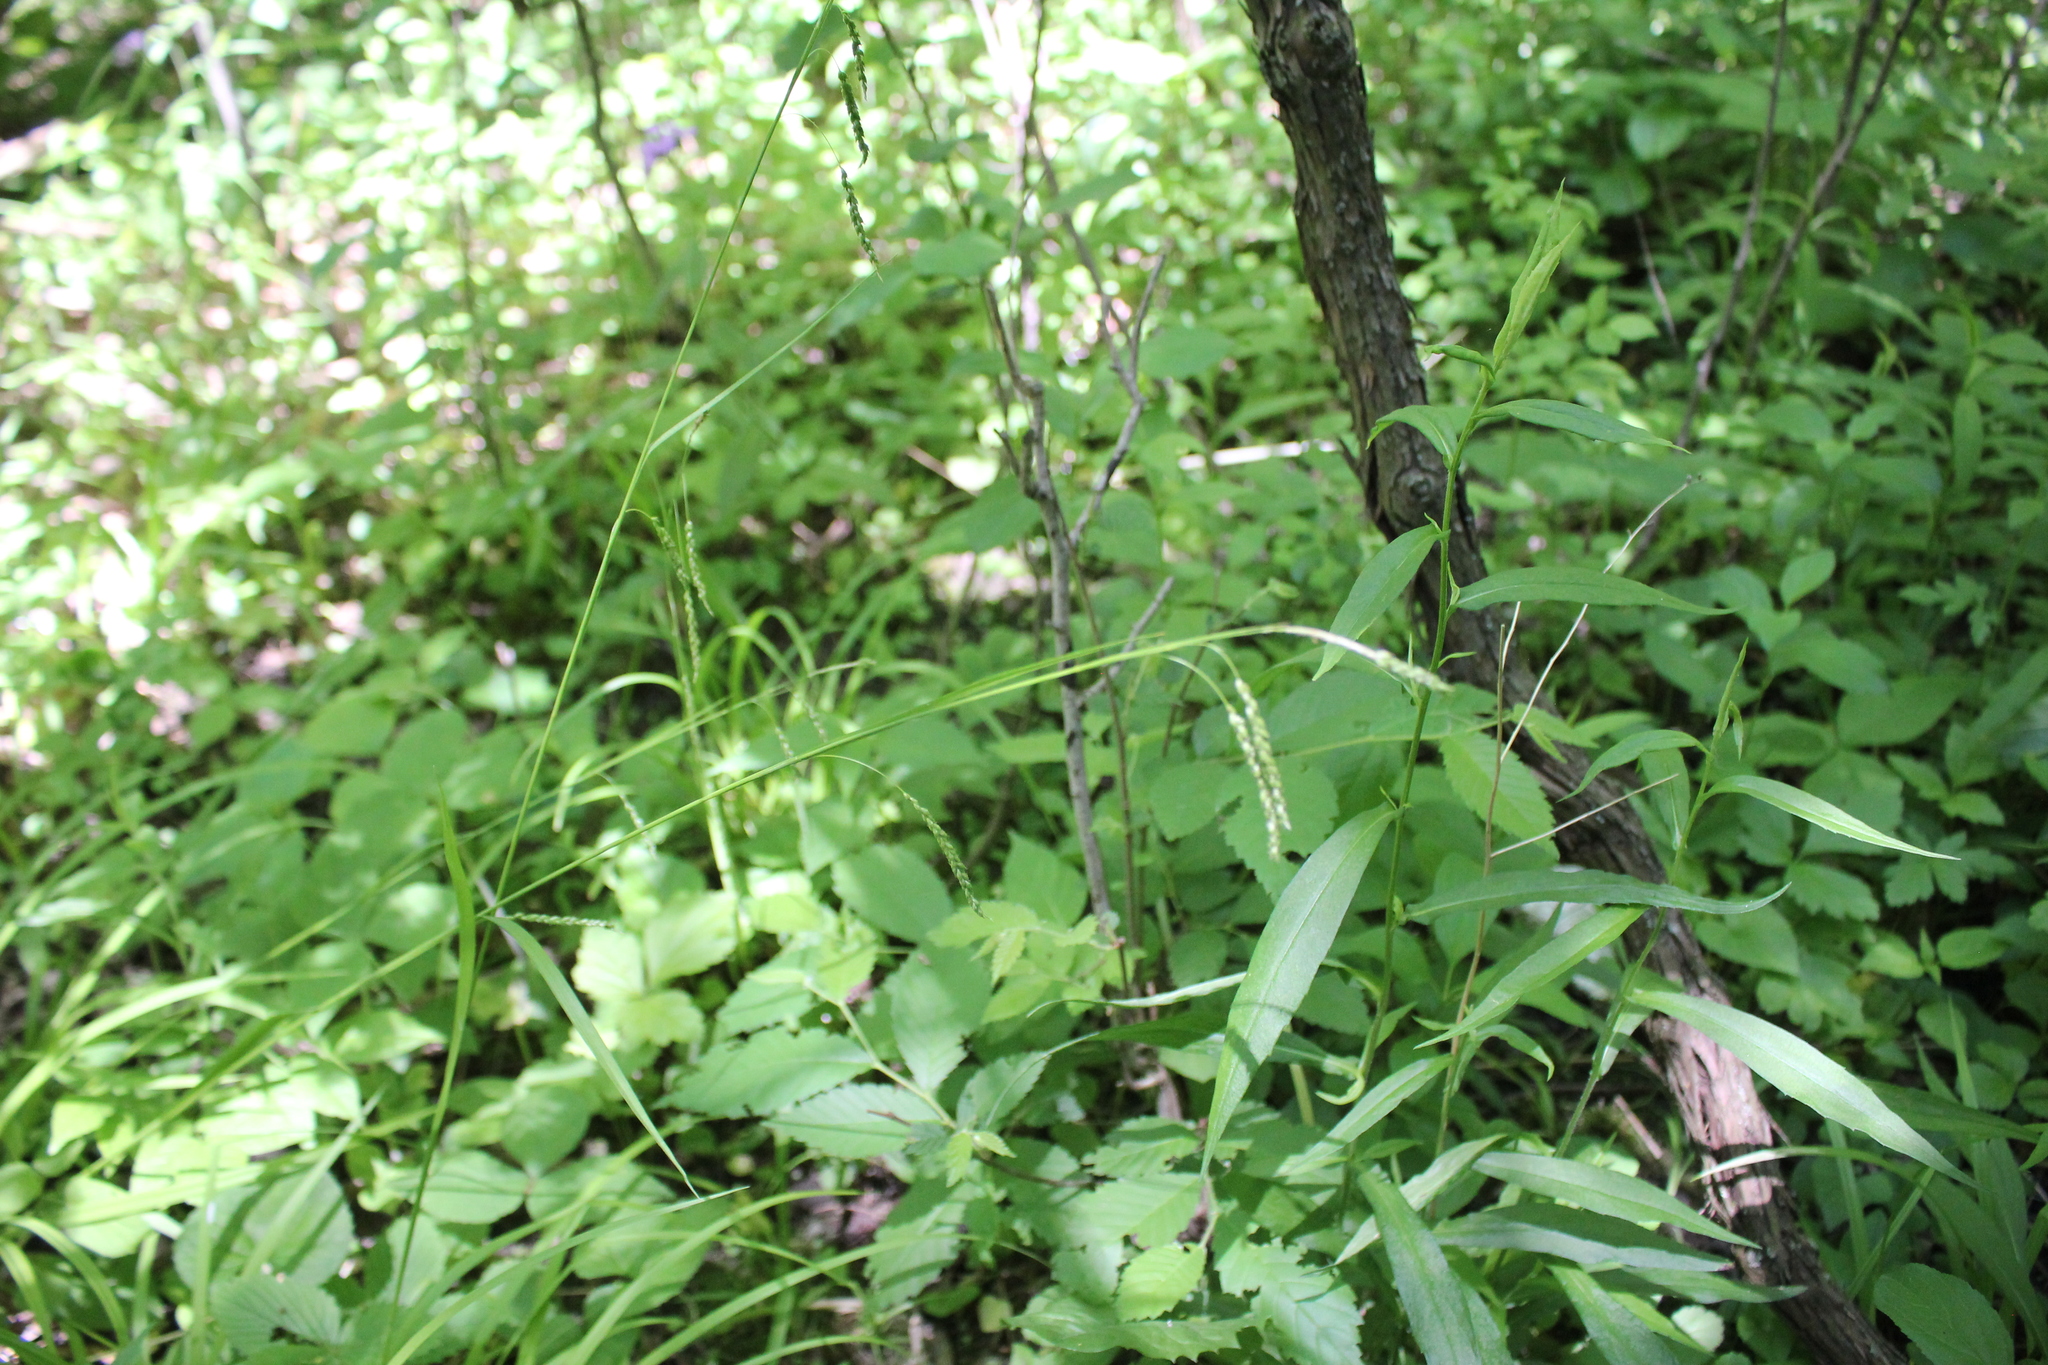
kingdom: Plantae
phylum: Tracheophyta
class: Liliopsida
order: Poales
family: Cyperaceae
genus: Carex
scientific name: Carex gracillima
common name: Graceful sedge
